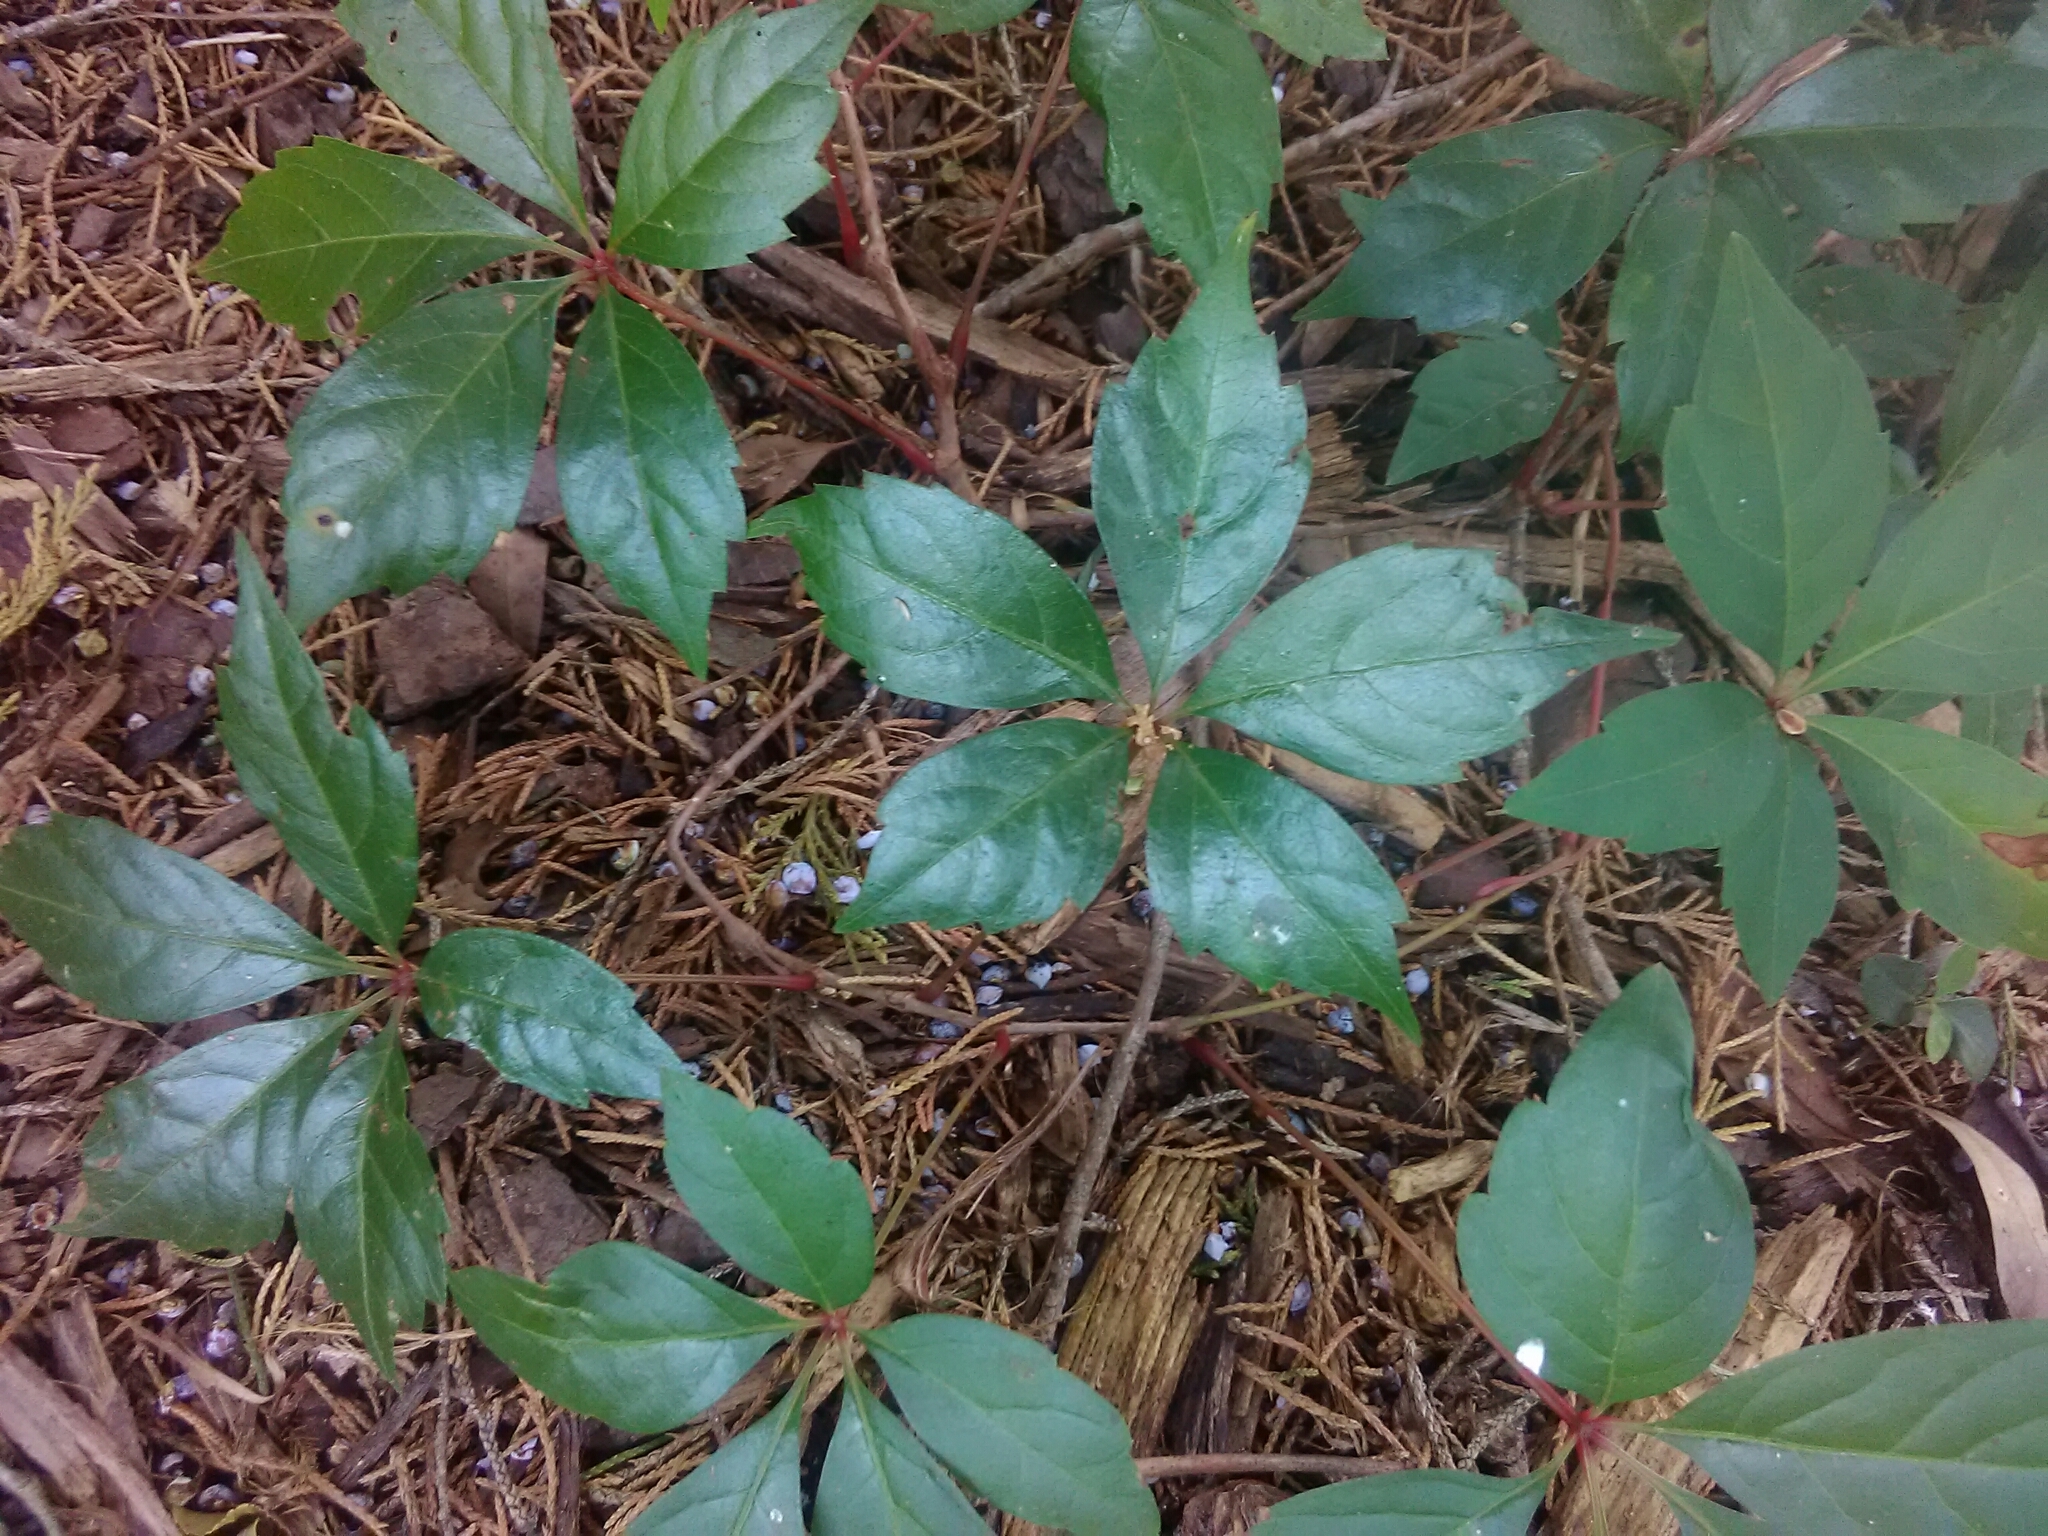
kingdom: Plantae
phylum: Tracheophyta
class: Magnoliopsida
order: Vitales
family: Vitaceae
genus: Parthenocissus
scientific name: Parthenocissus quinquefolia
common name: Virginia-creeper
